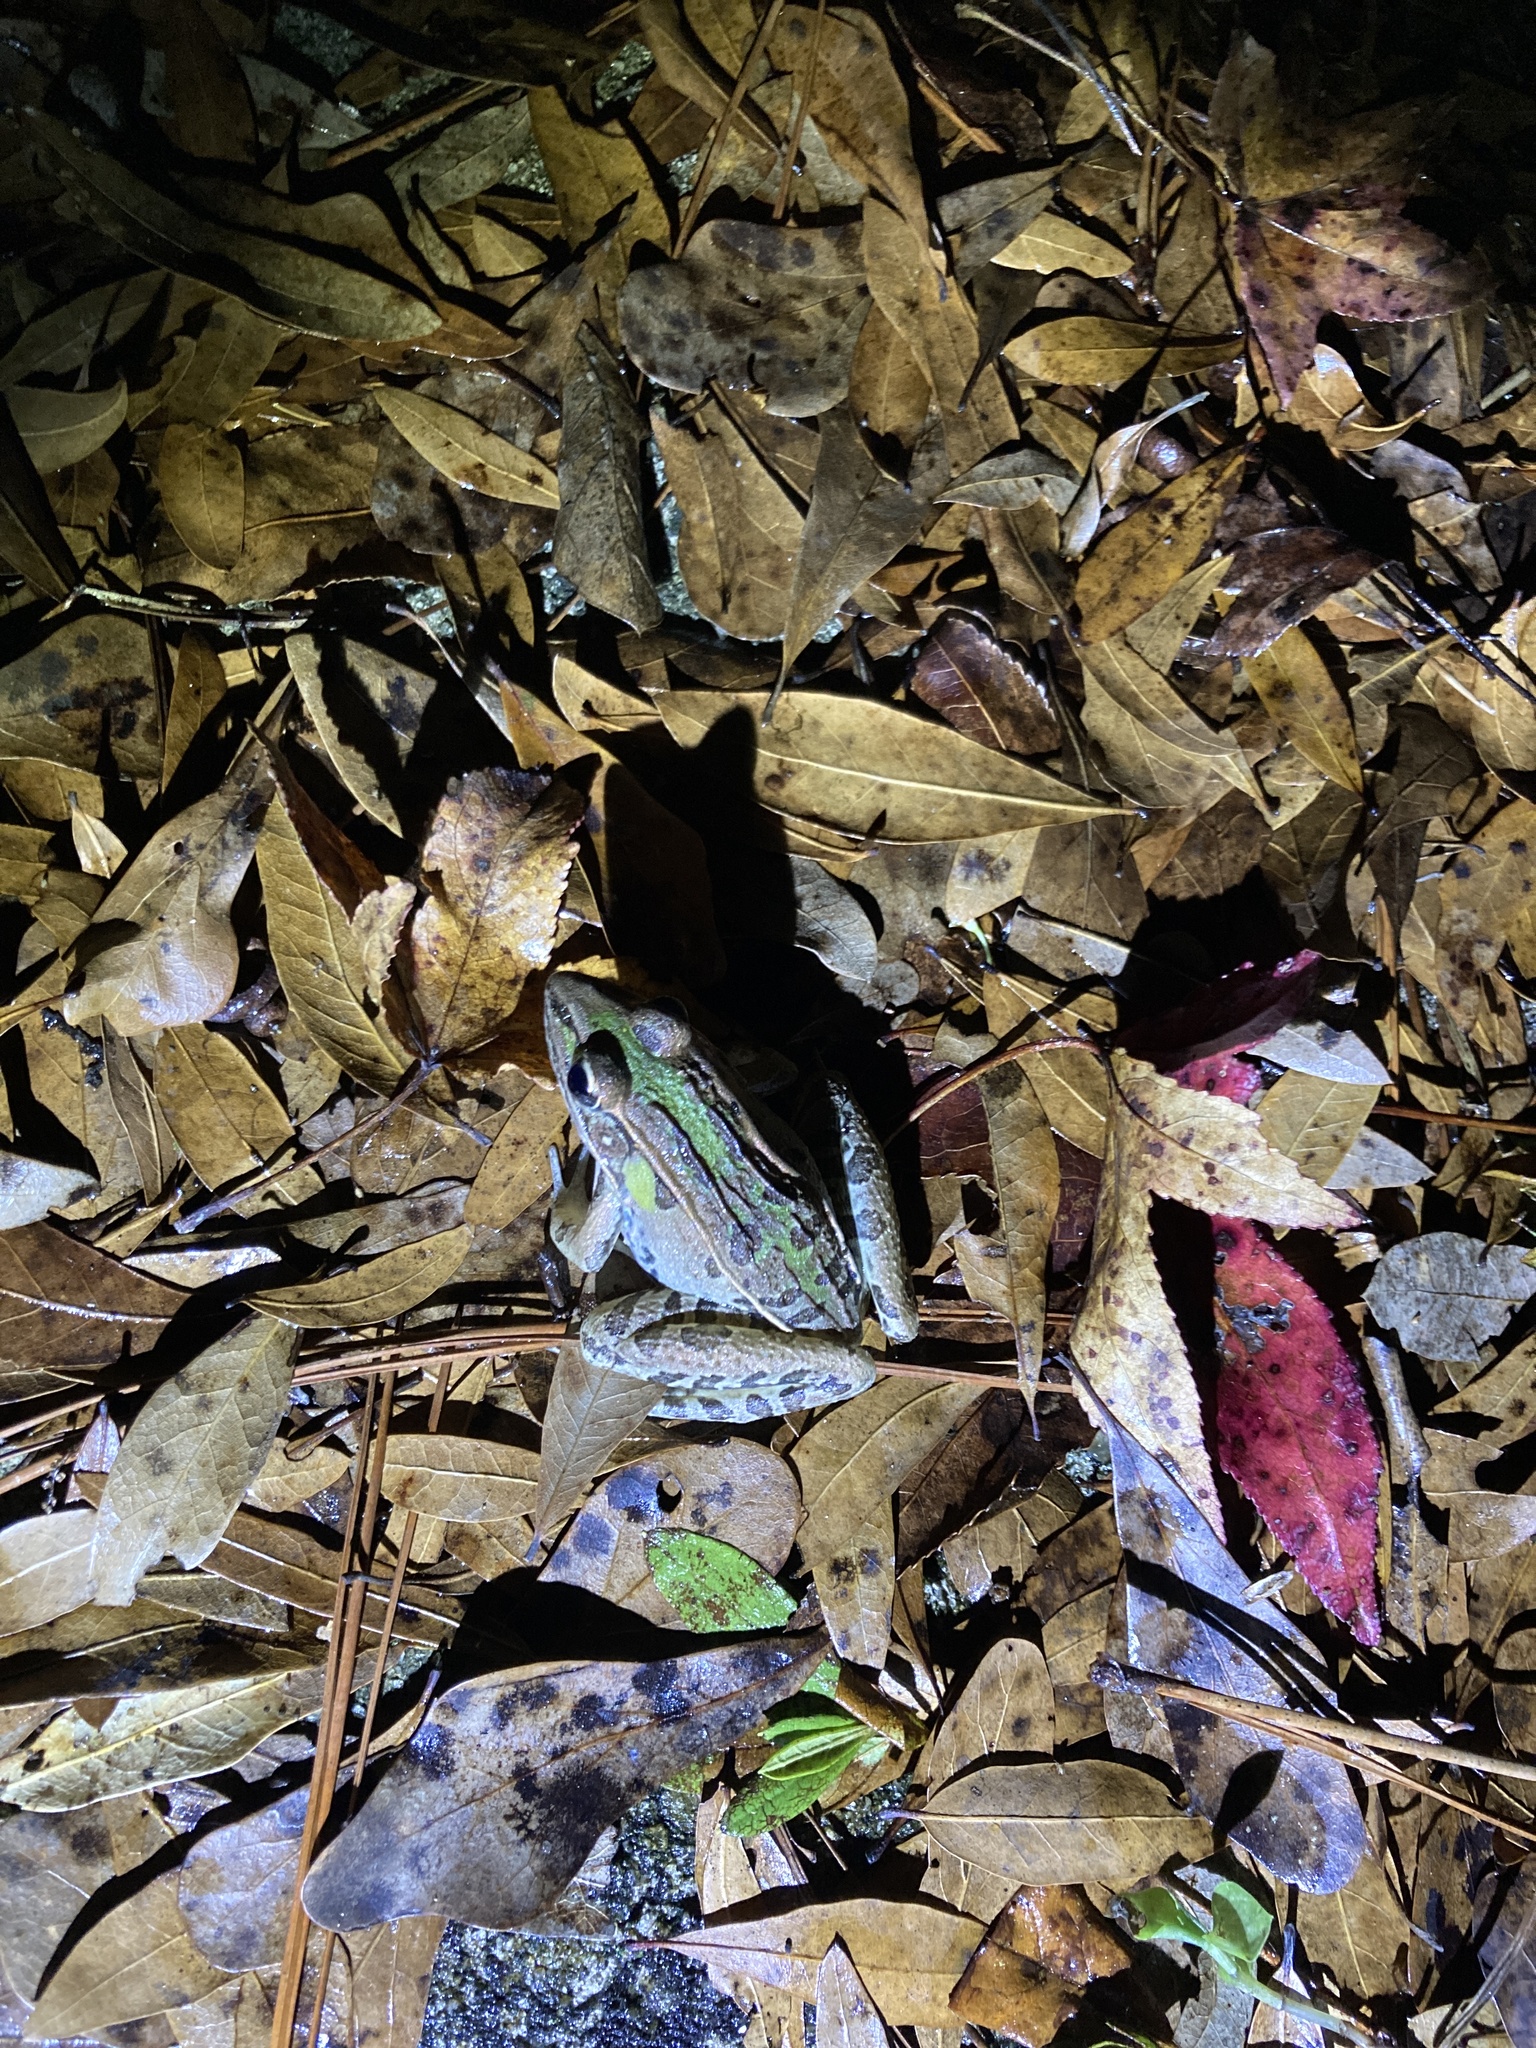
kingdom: Animalia
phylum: Chordata
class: Amphibia
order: Anura
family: Ranidae
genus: Lithobates
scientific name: Lithobates sphenocephalus
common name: Southern leopard frog
